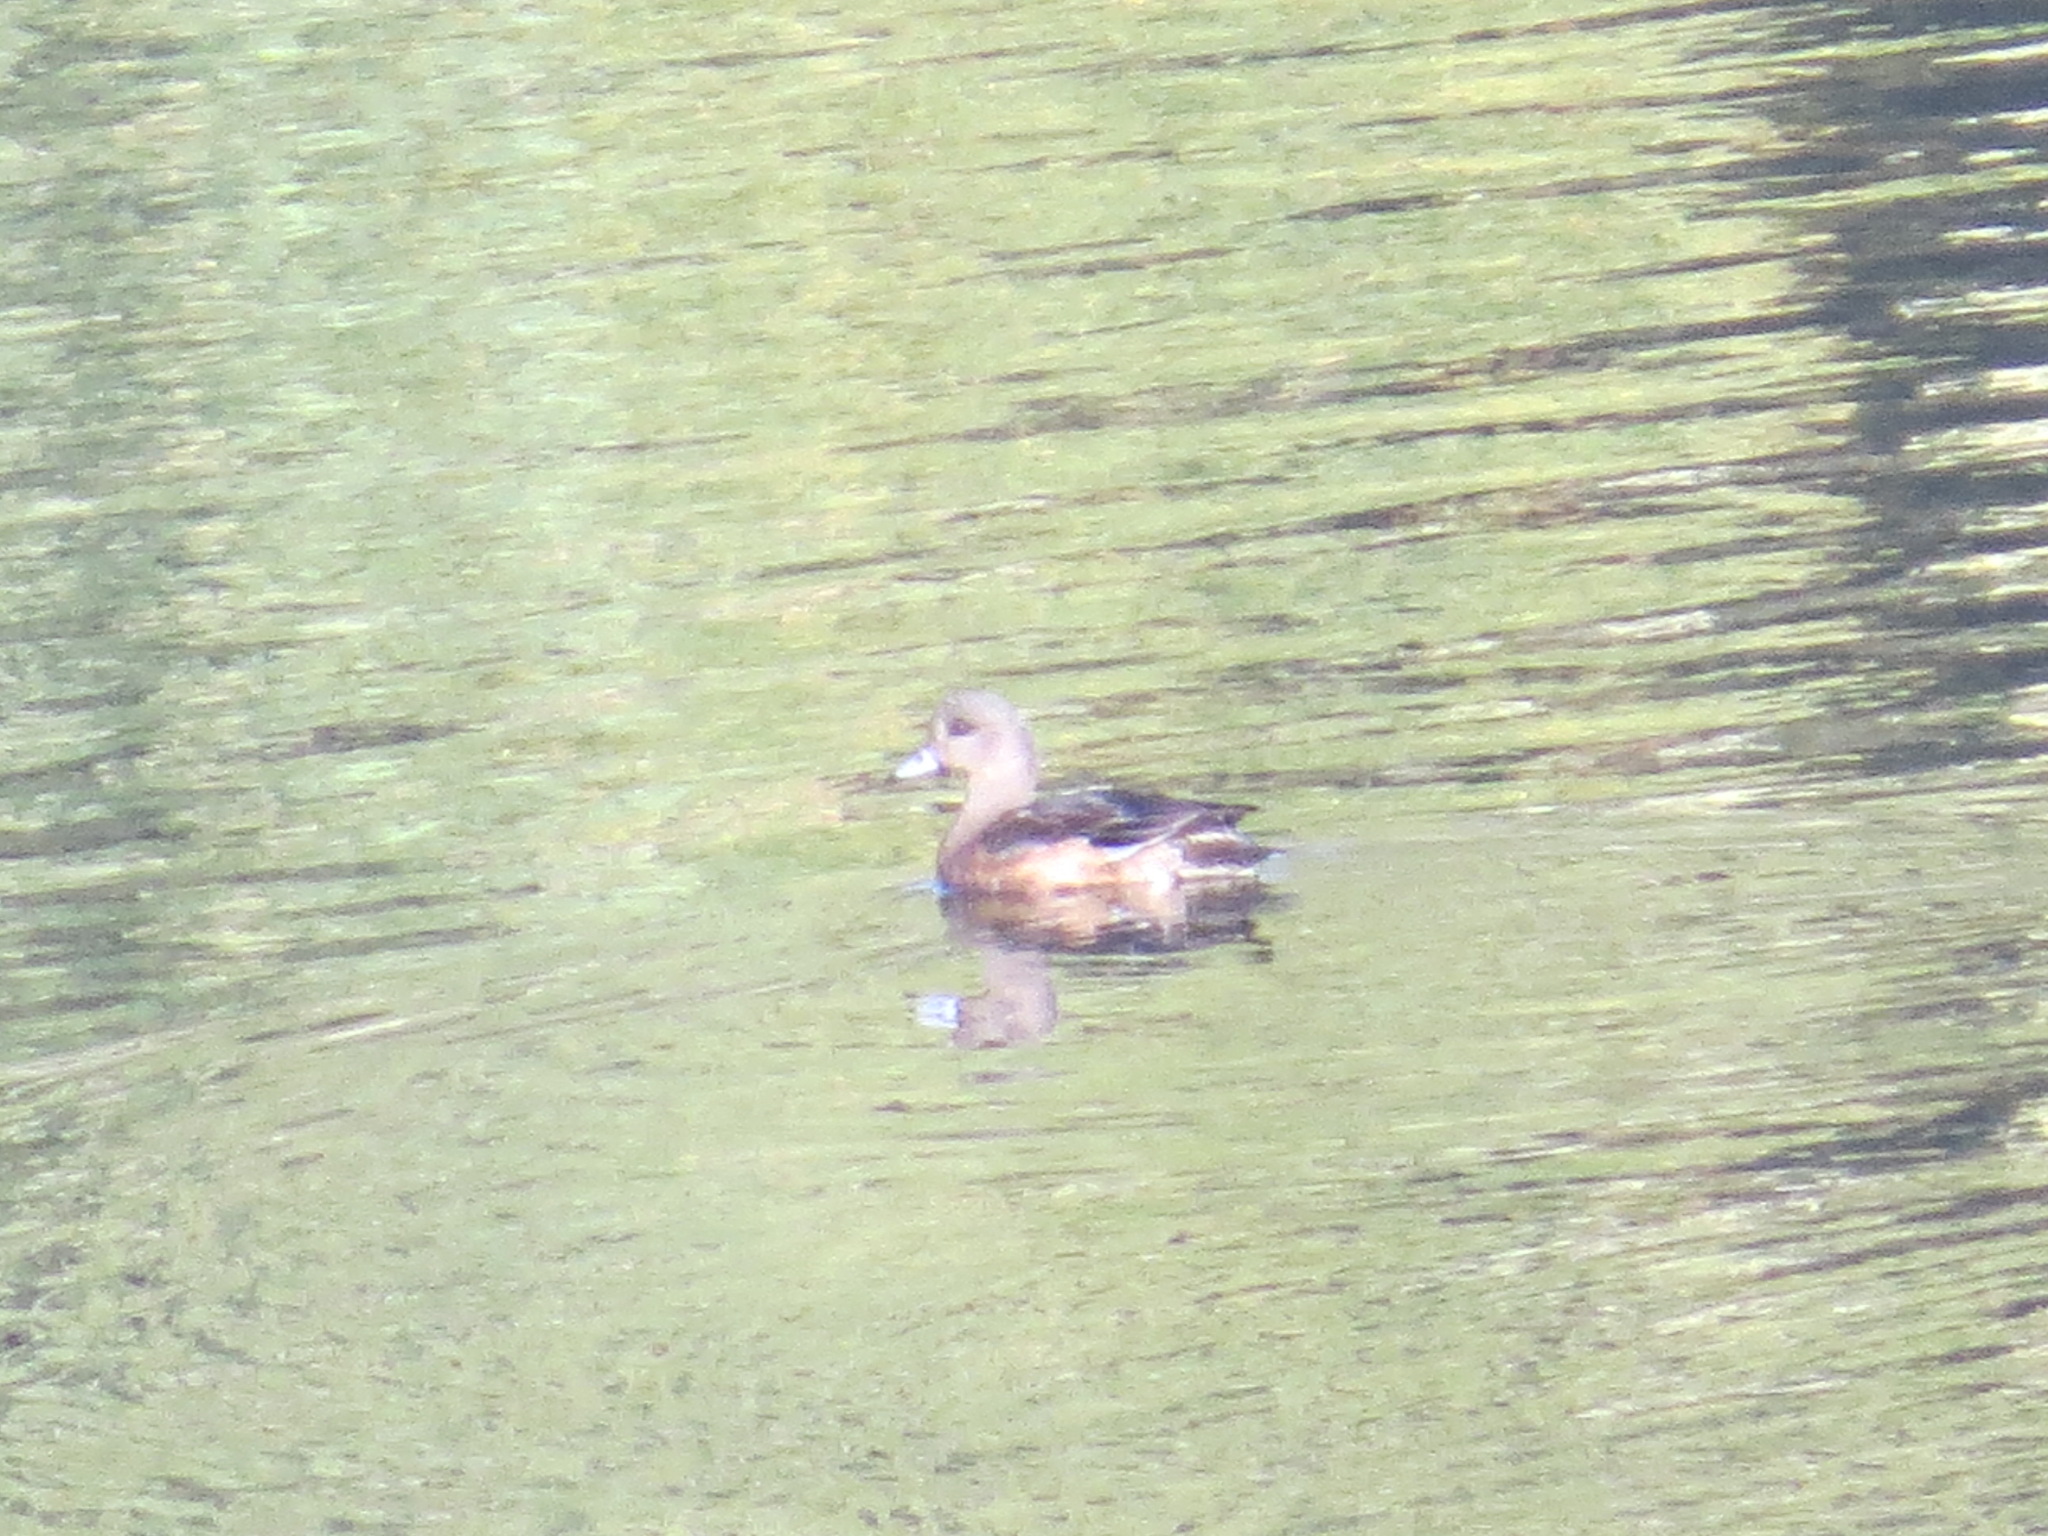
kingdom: Animalia
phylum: Chordata
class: Aves
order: Anseriformes
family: Anatidae
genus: Mareca
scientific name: Mareca americana
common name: American wigeon
